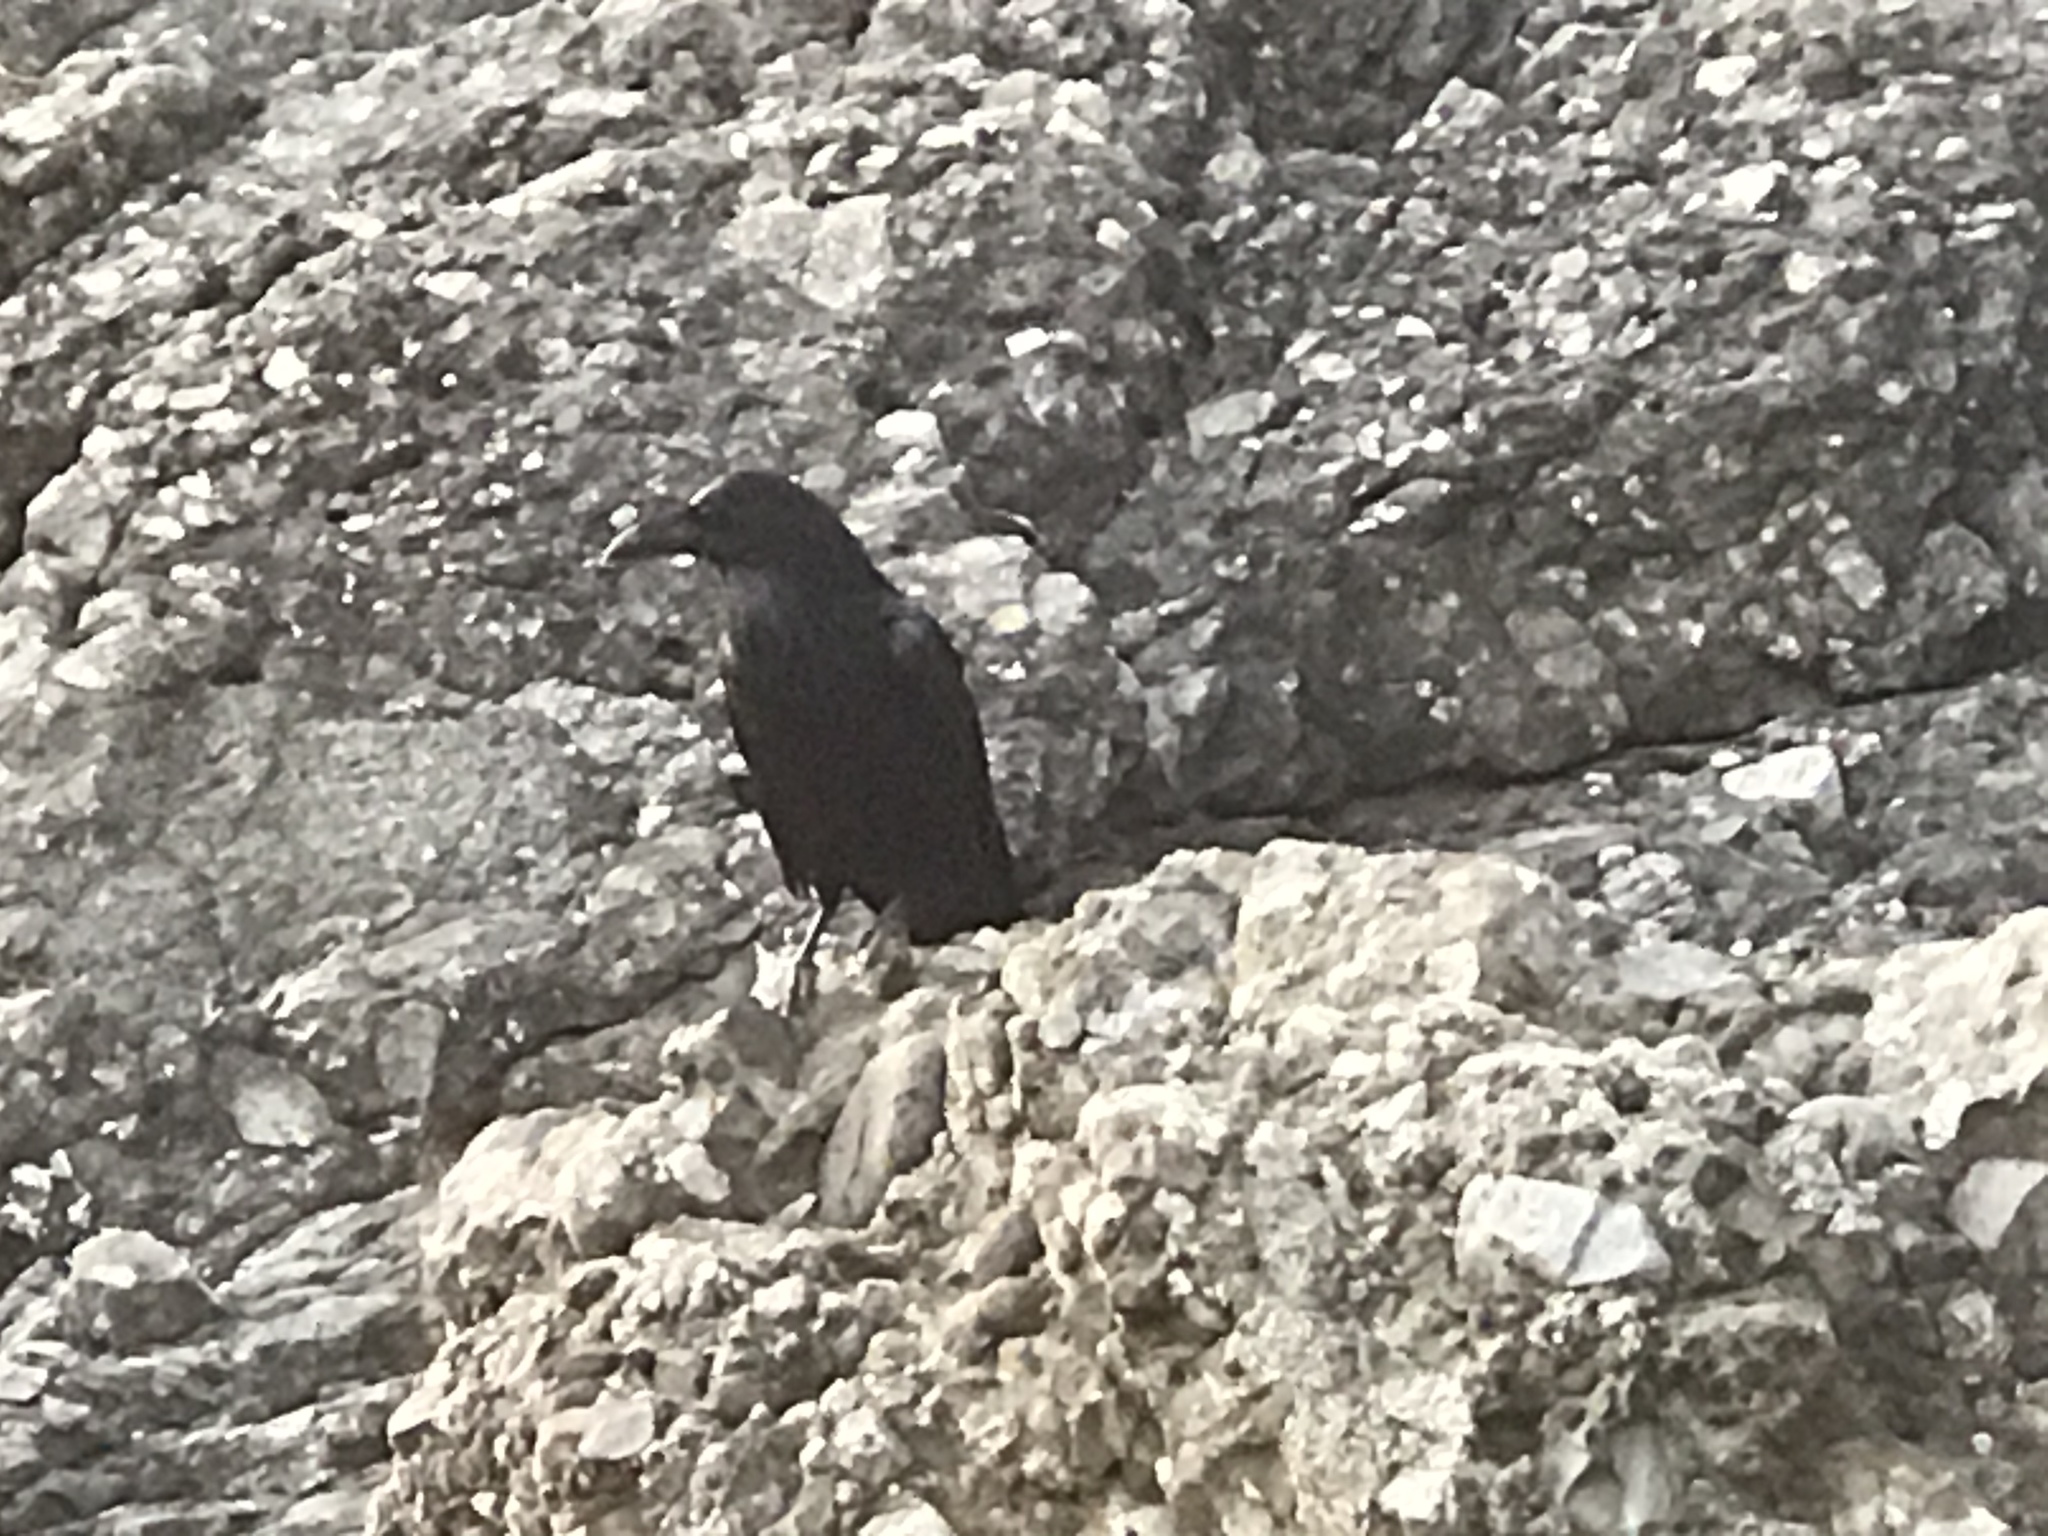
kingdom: Animalia
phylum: Chordata
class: Aves
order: Passeriformes
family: Corvidae
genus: Corvus
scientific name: Corvus corax
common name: Common raven
